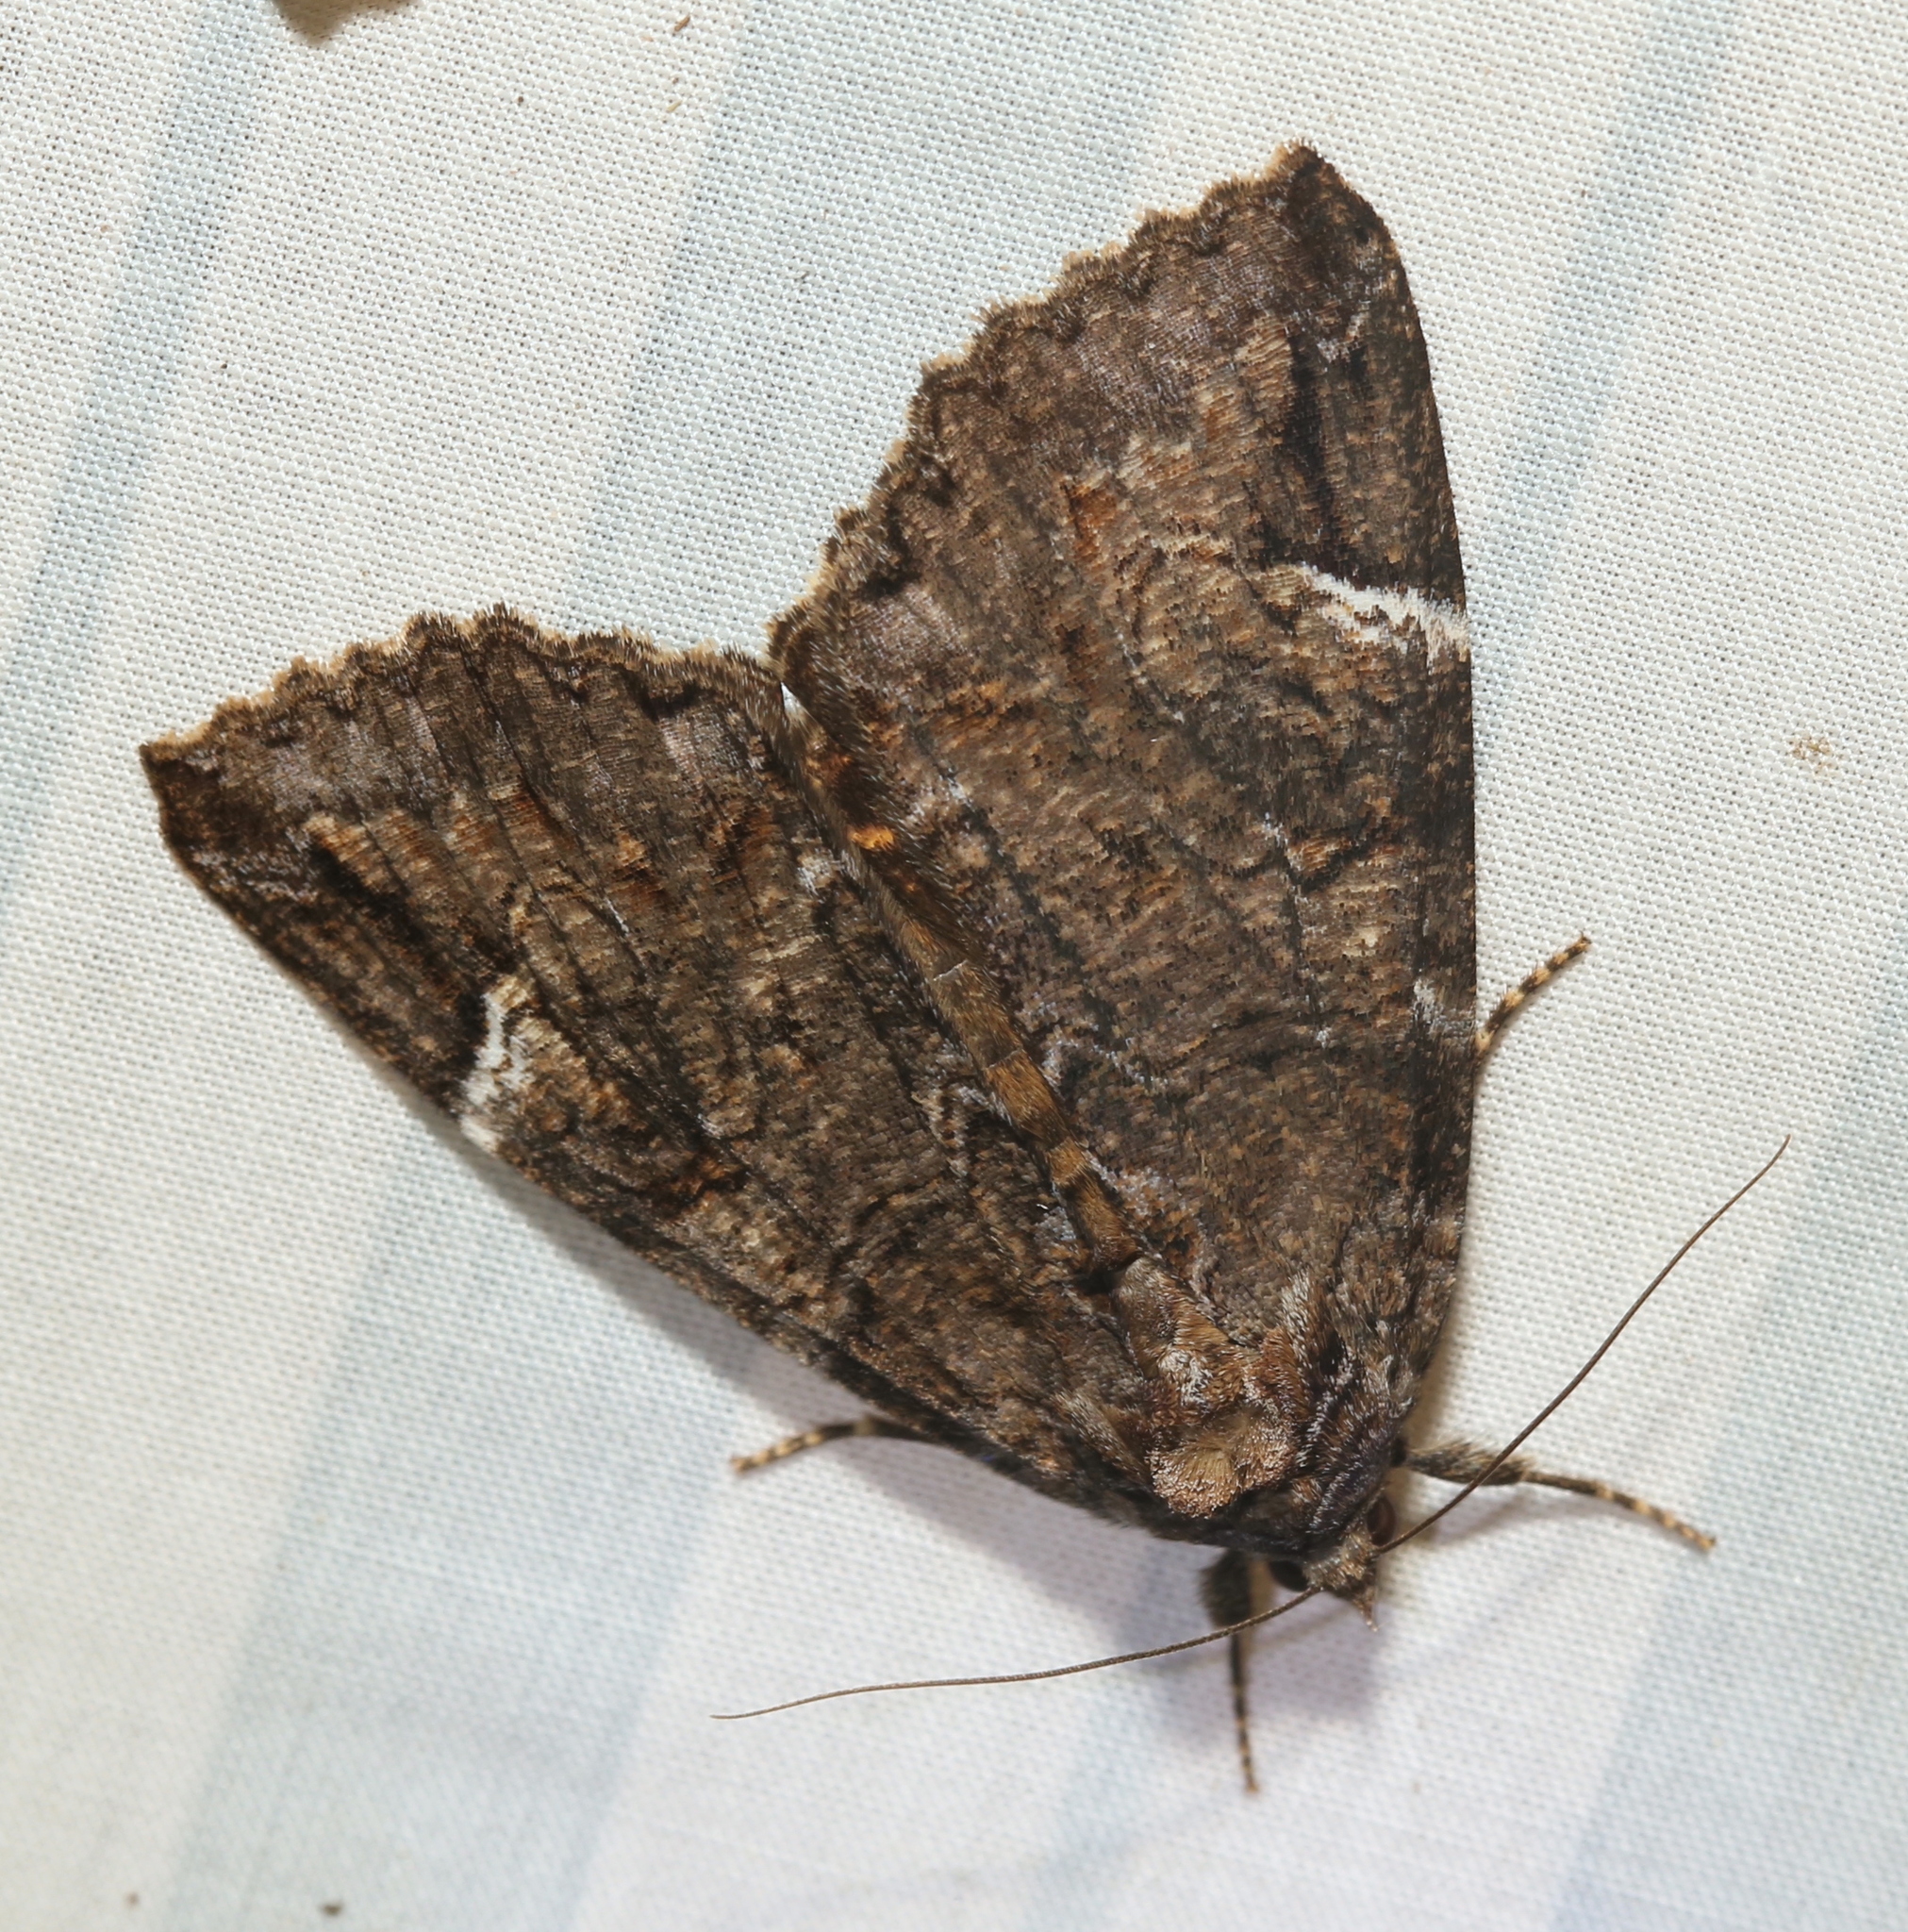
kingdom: Animalia
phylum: Arthropoda
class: Insecta
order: Lepidoptera
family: Erebidae
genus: Euparthenos
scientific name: Euparthenos nubilis
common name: Locust underwing
